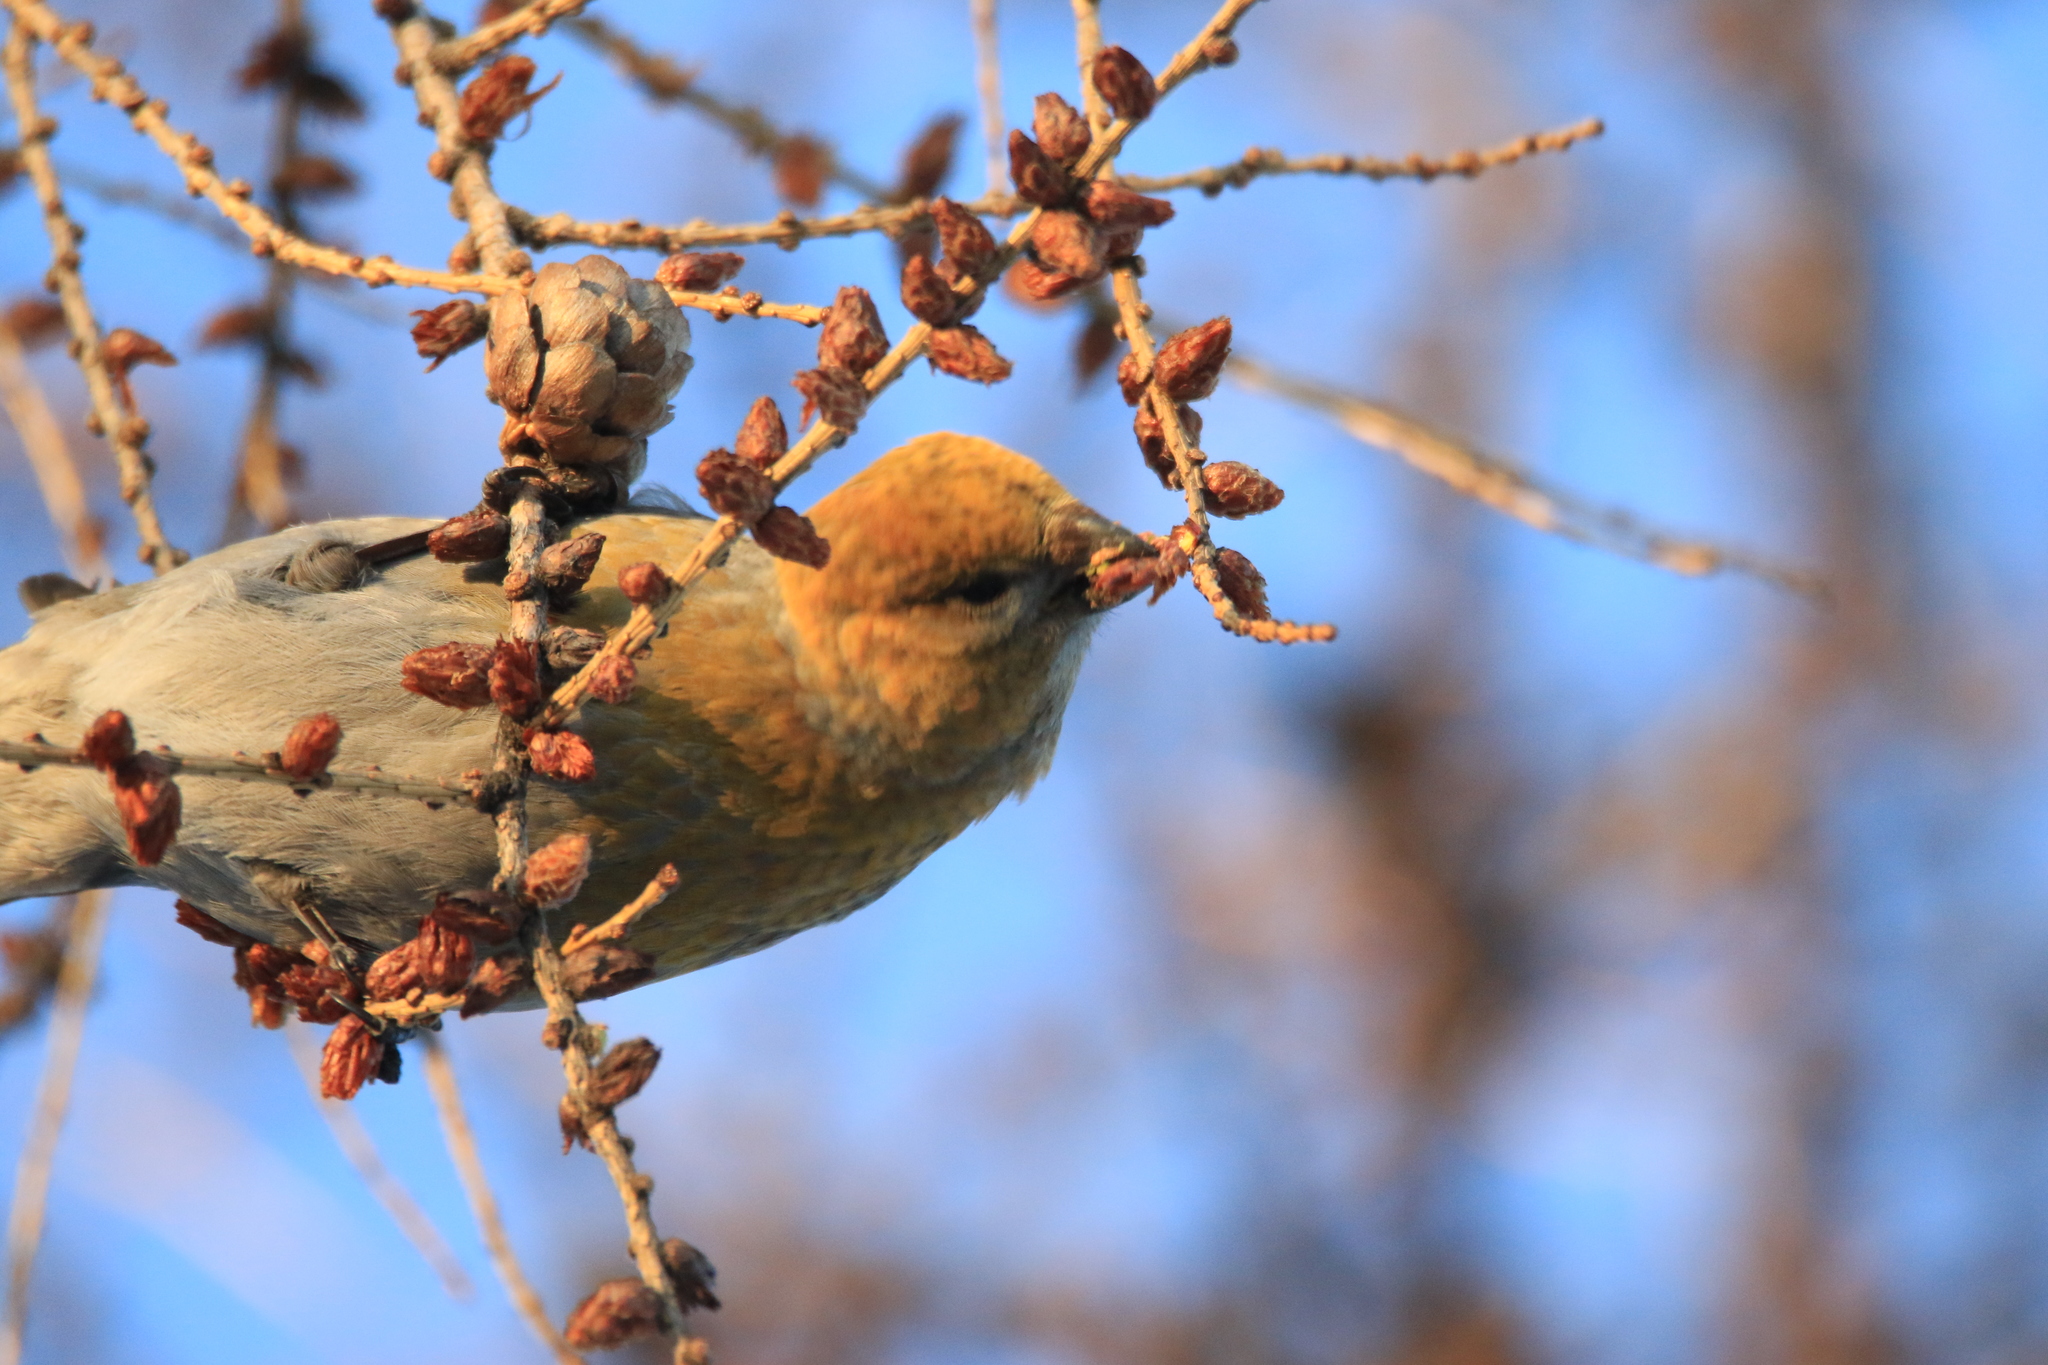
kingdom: Animalia
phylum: Chordata
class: Aves
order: Passeriformes
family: Fringillidae
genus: Pinicola
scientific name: Pinicola enucleator
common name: Pine grosbeak
